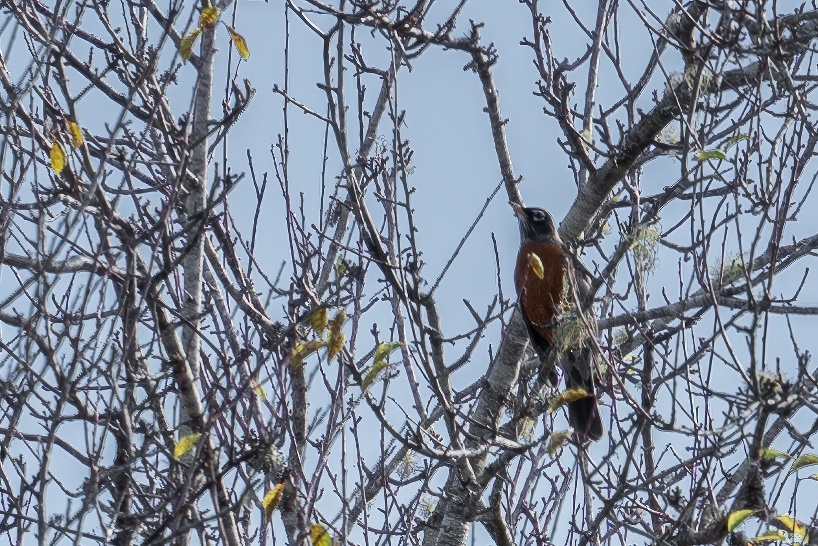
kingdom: Animalia
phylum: Chordata
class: Aves
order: Passeriformes
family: Turdidae
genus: Turdus
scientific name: Turdus migratorius
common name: American robin
